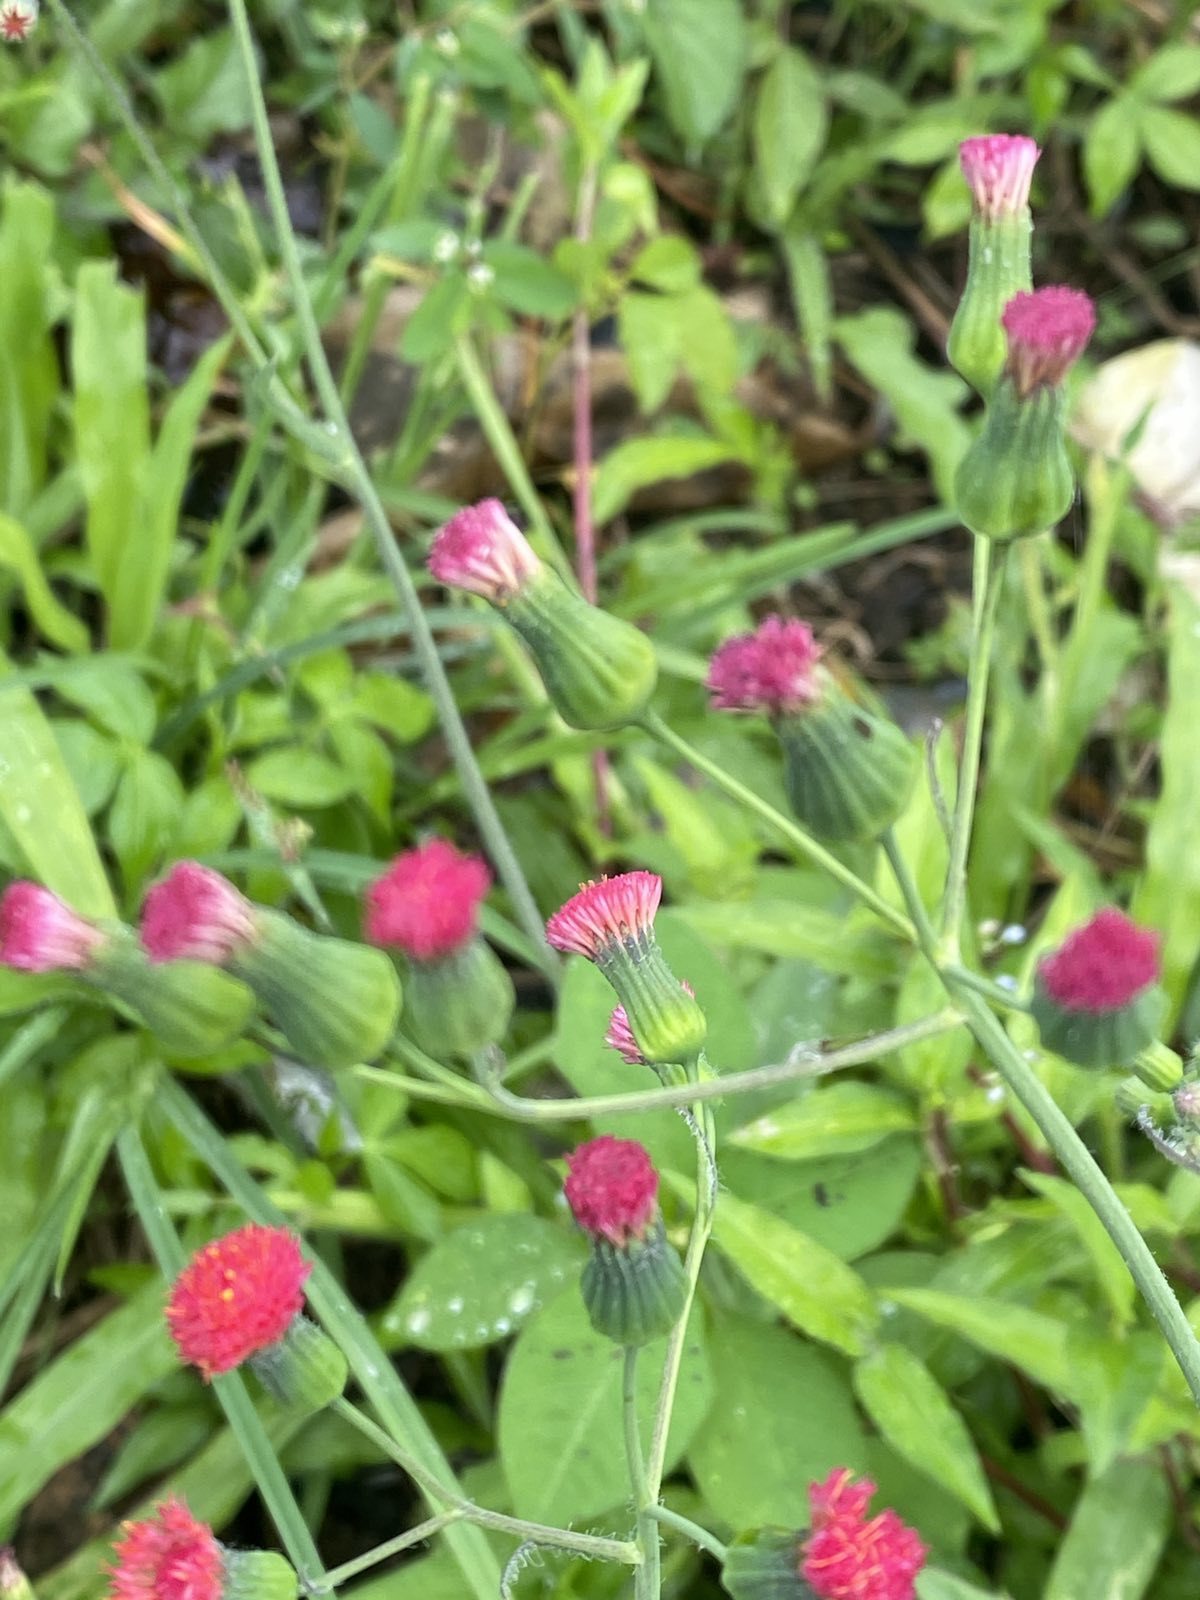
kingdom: Plantae
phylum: Tracheophyta
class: Magnoliopsida
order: Asterales
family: Asteraceae
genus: Emilia
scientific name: Emilia fosbergii
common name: Florida tasselflower
